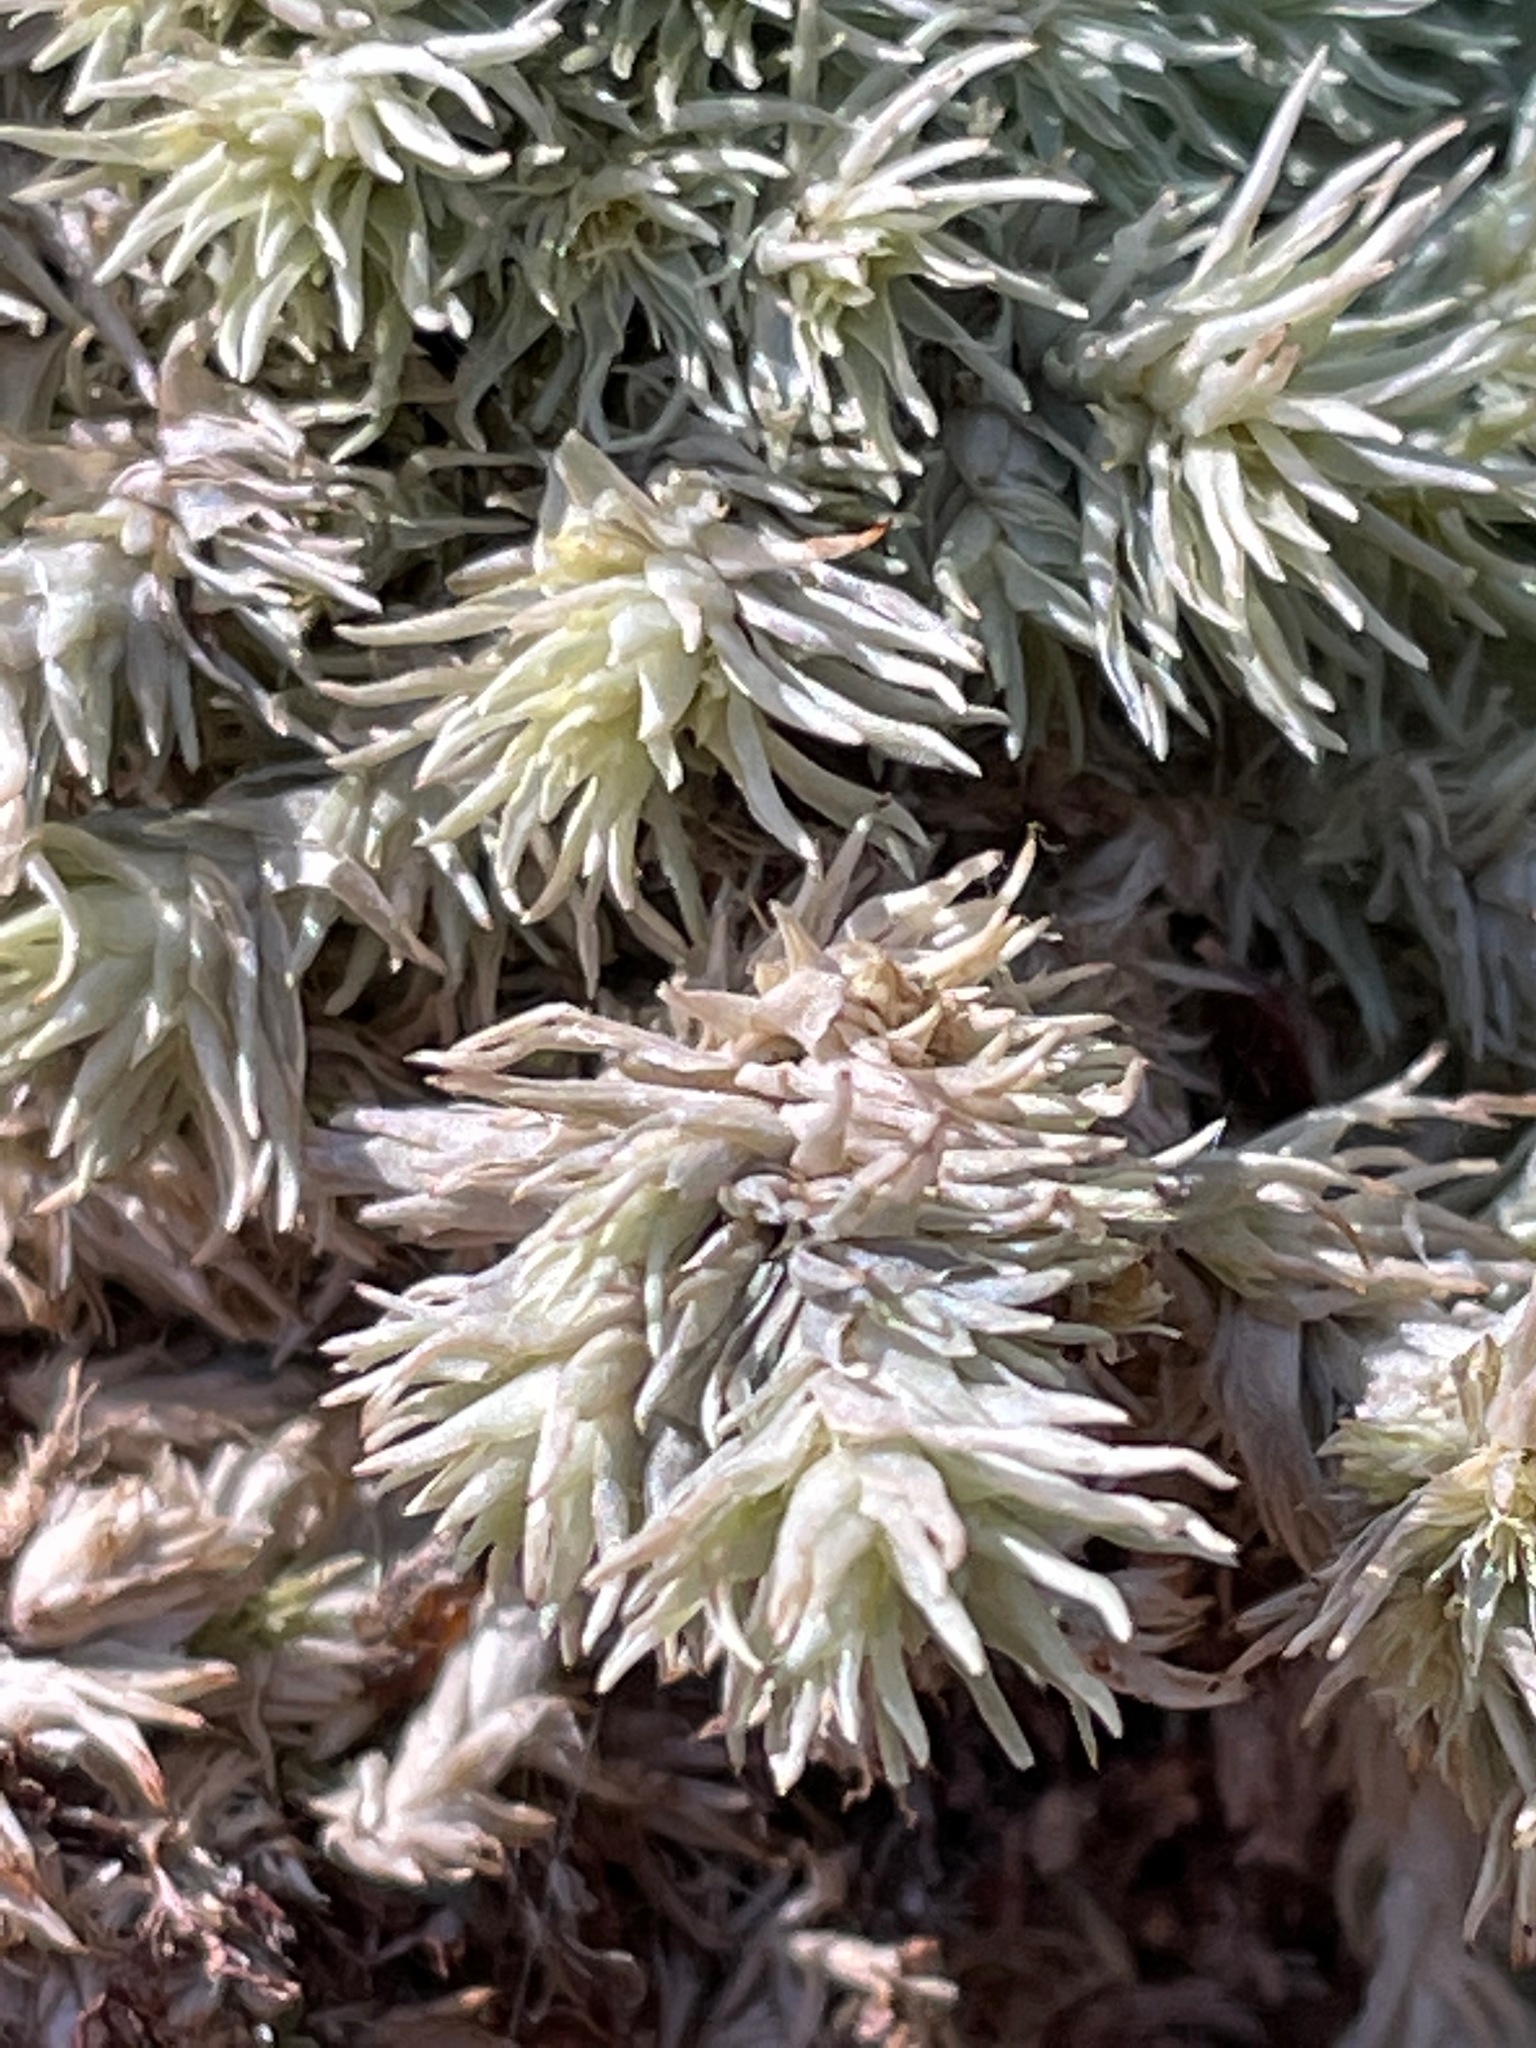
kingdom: Plantae
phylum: Bryophyta
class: Bryopsida
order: Dicranales
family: Leucobryaceae
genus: Leucobryum
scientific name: Leucobryum glaucum
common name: Large white-moss
